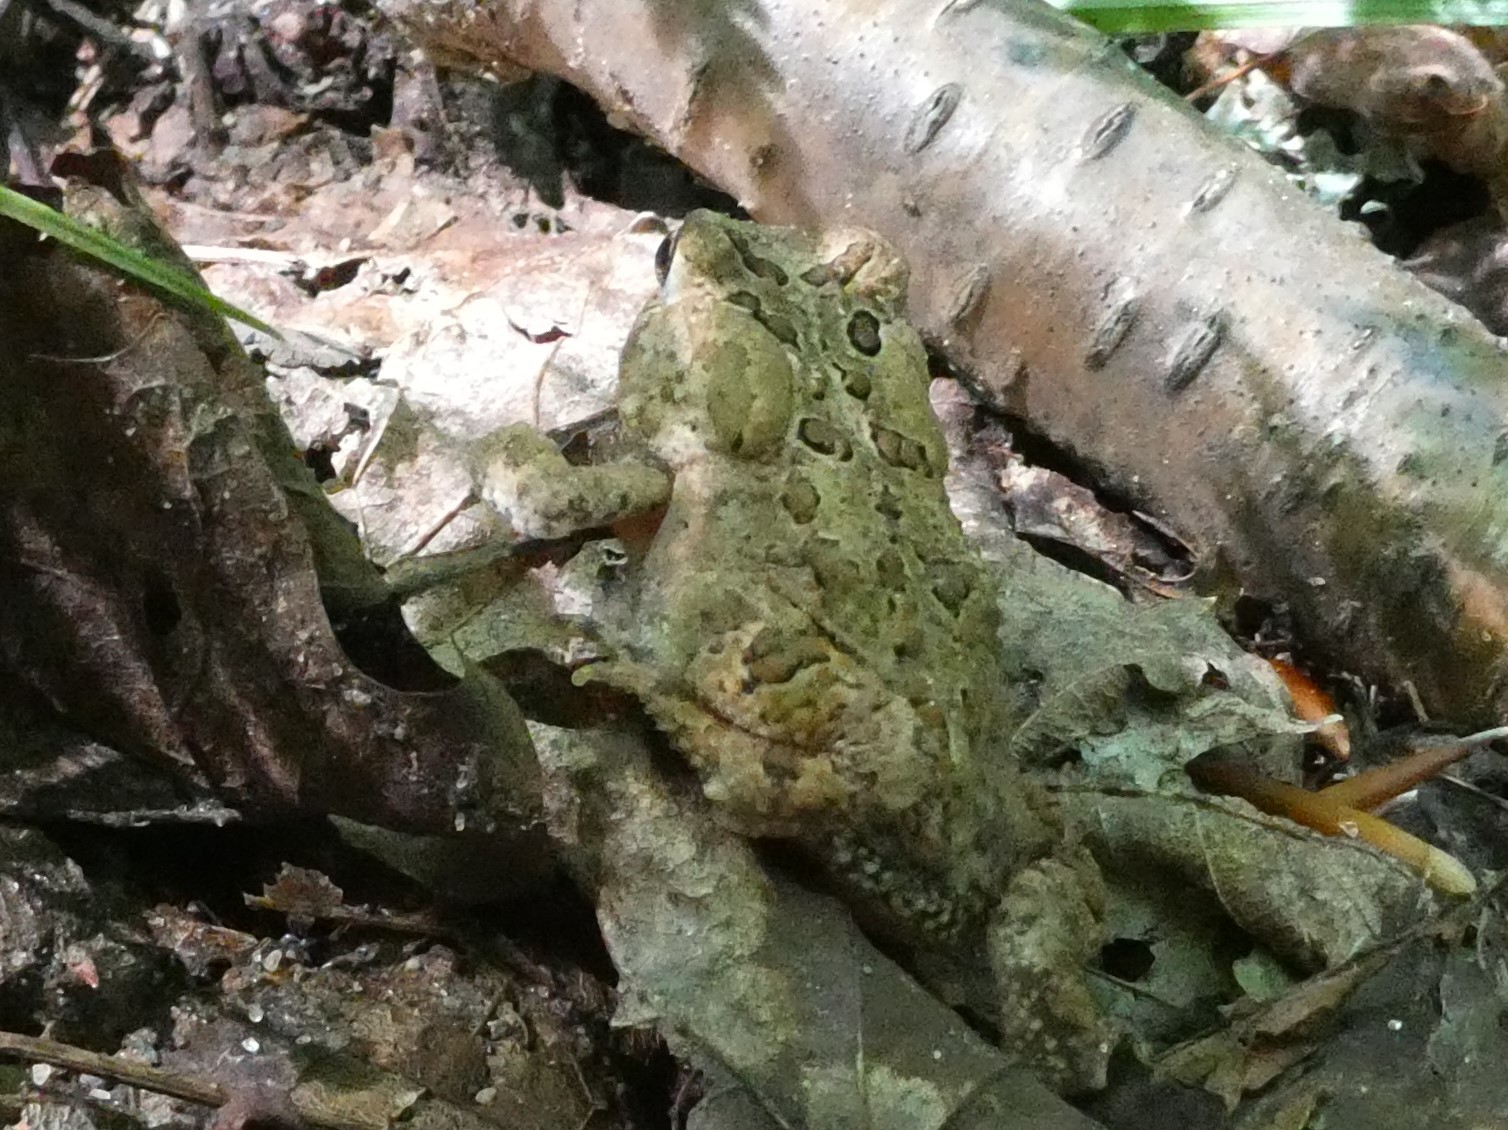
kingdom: Animalia
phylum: Chordata
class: Amphibia
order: Anura
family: Bufonidae
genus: Anaxyrus
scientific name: Anaxyrus americanus
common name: American toad
